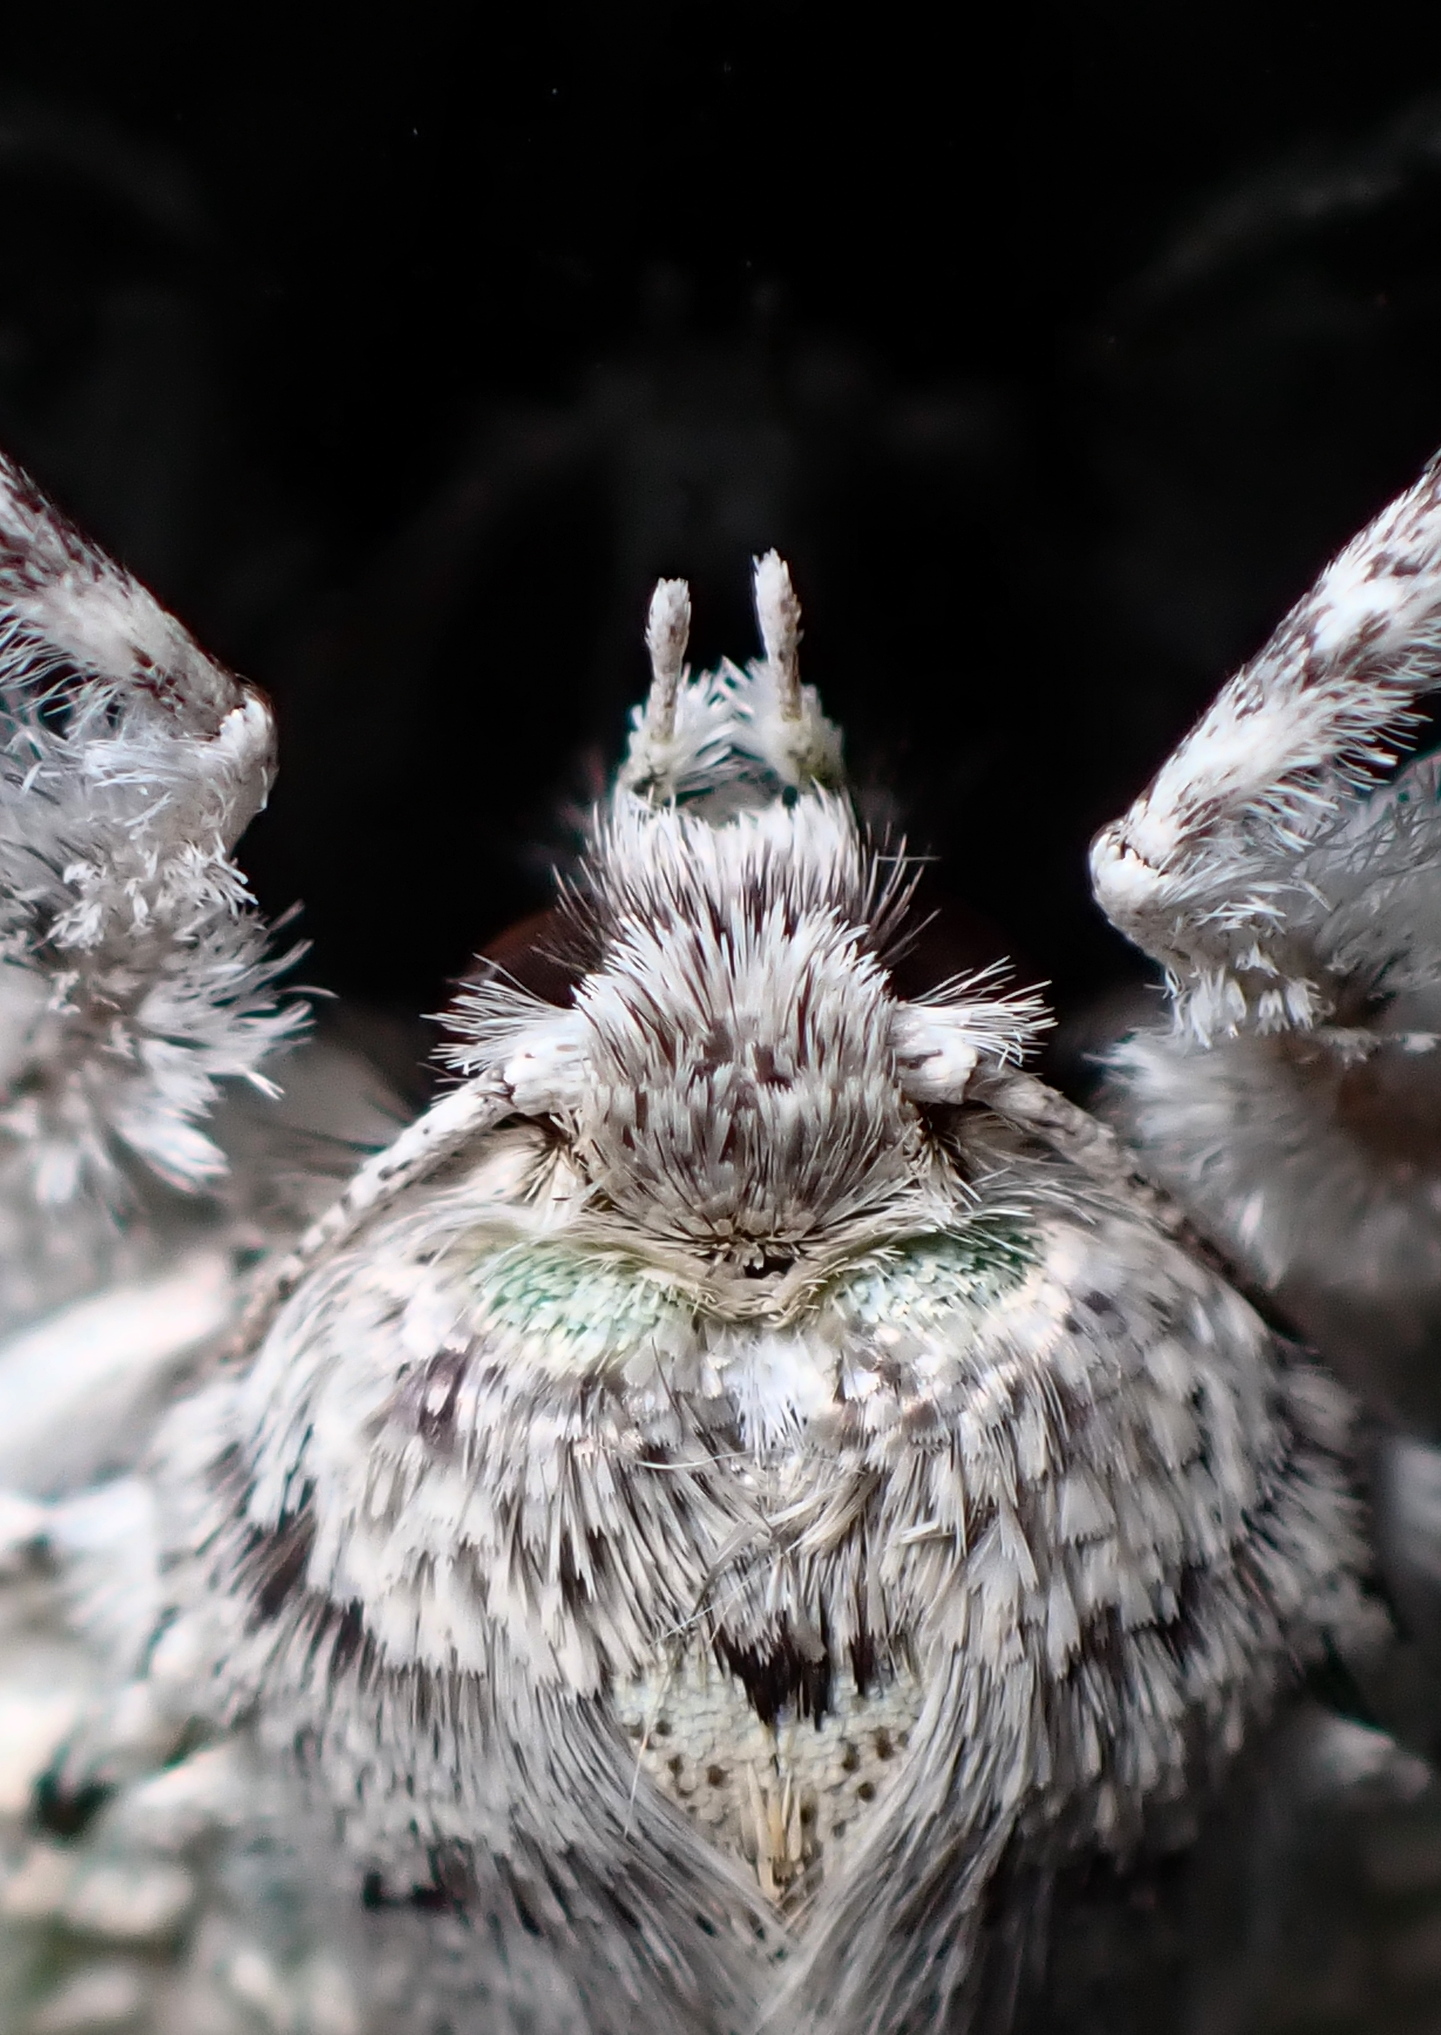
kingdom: Animalia
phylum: Arthropoda
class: Insecta
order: Lepidoptera
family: Geometridae
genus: Declana
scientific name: Declana floccosa
